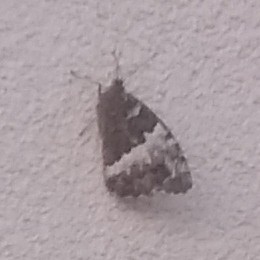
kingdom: Animalia
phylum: Arthropoda
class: Insecta
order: Lepidoptera
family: Lycaenidae
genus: Loweia
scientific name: Loweia tityrus
